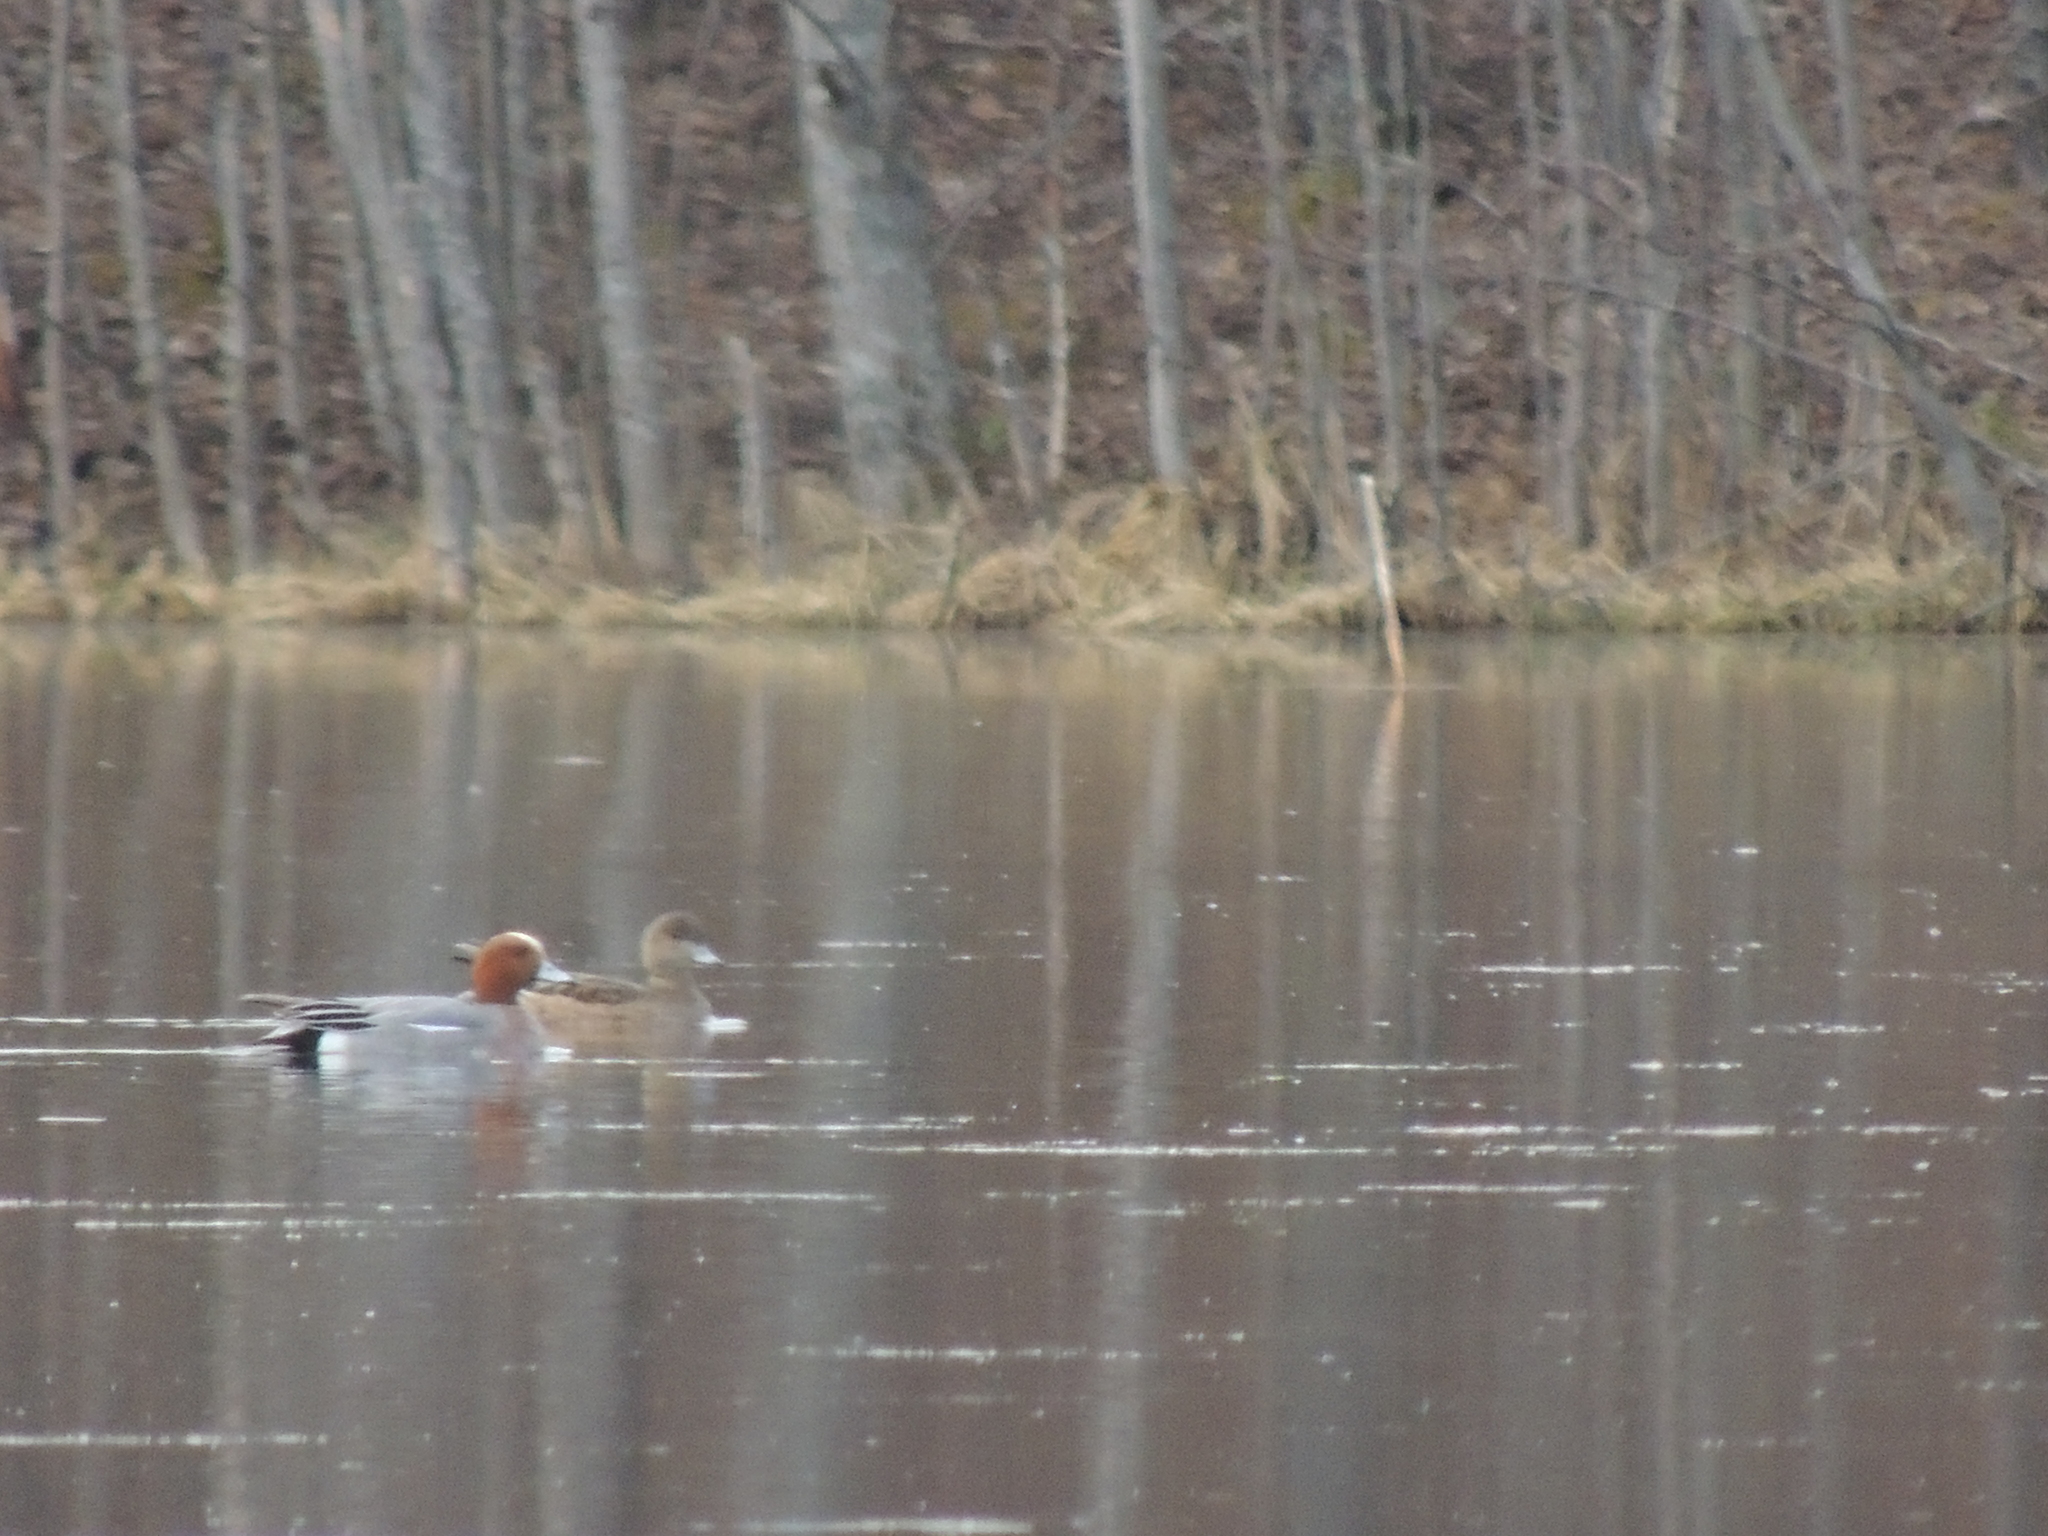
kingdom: Animalia
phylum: Chordata
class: Aves
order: Anseriformes
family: Anatidae
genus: Mareca
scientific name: Mareca penelope
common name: Eurasian wigeon
